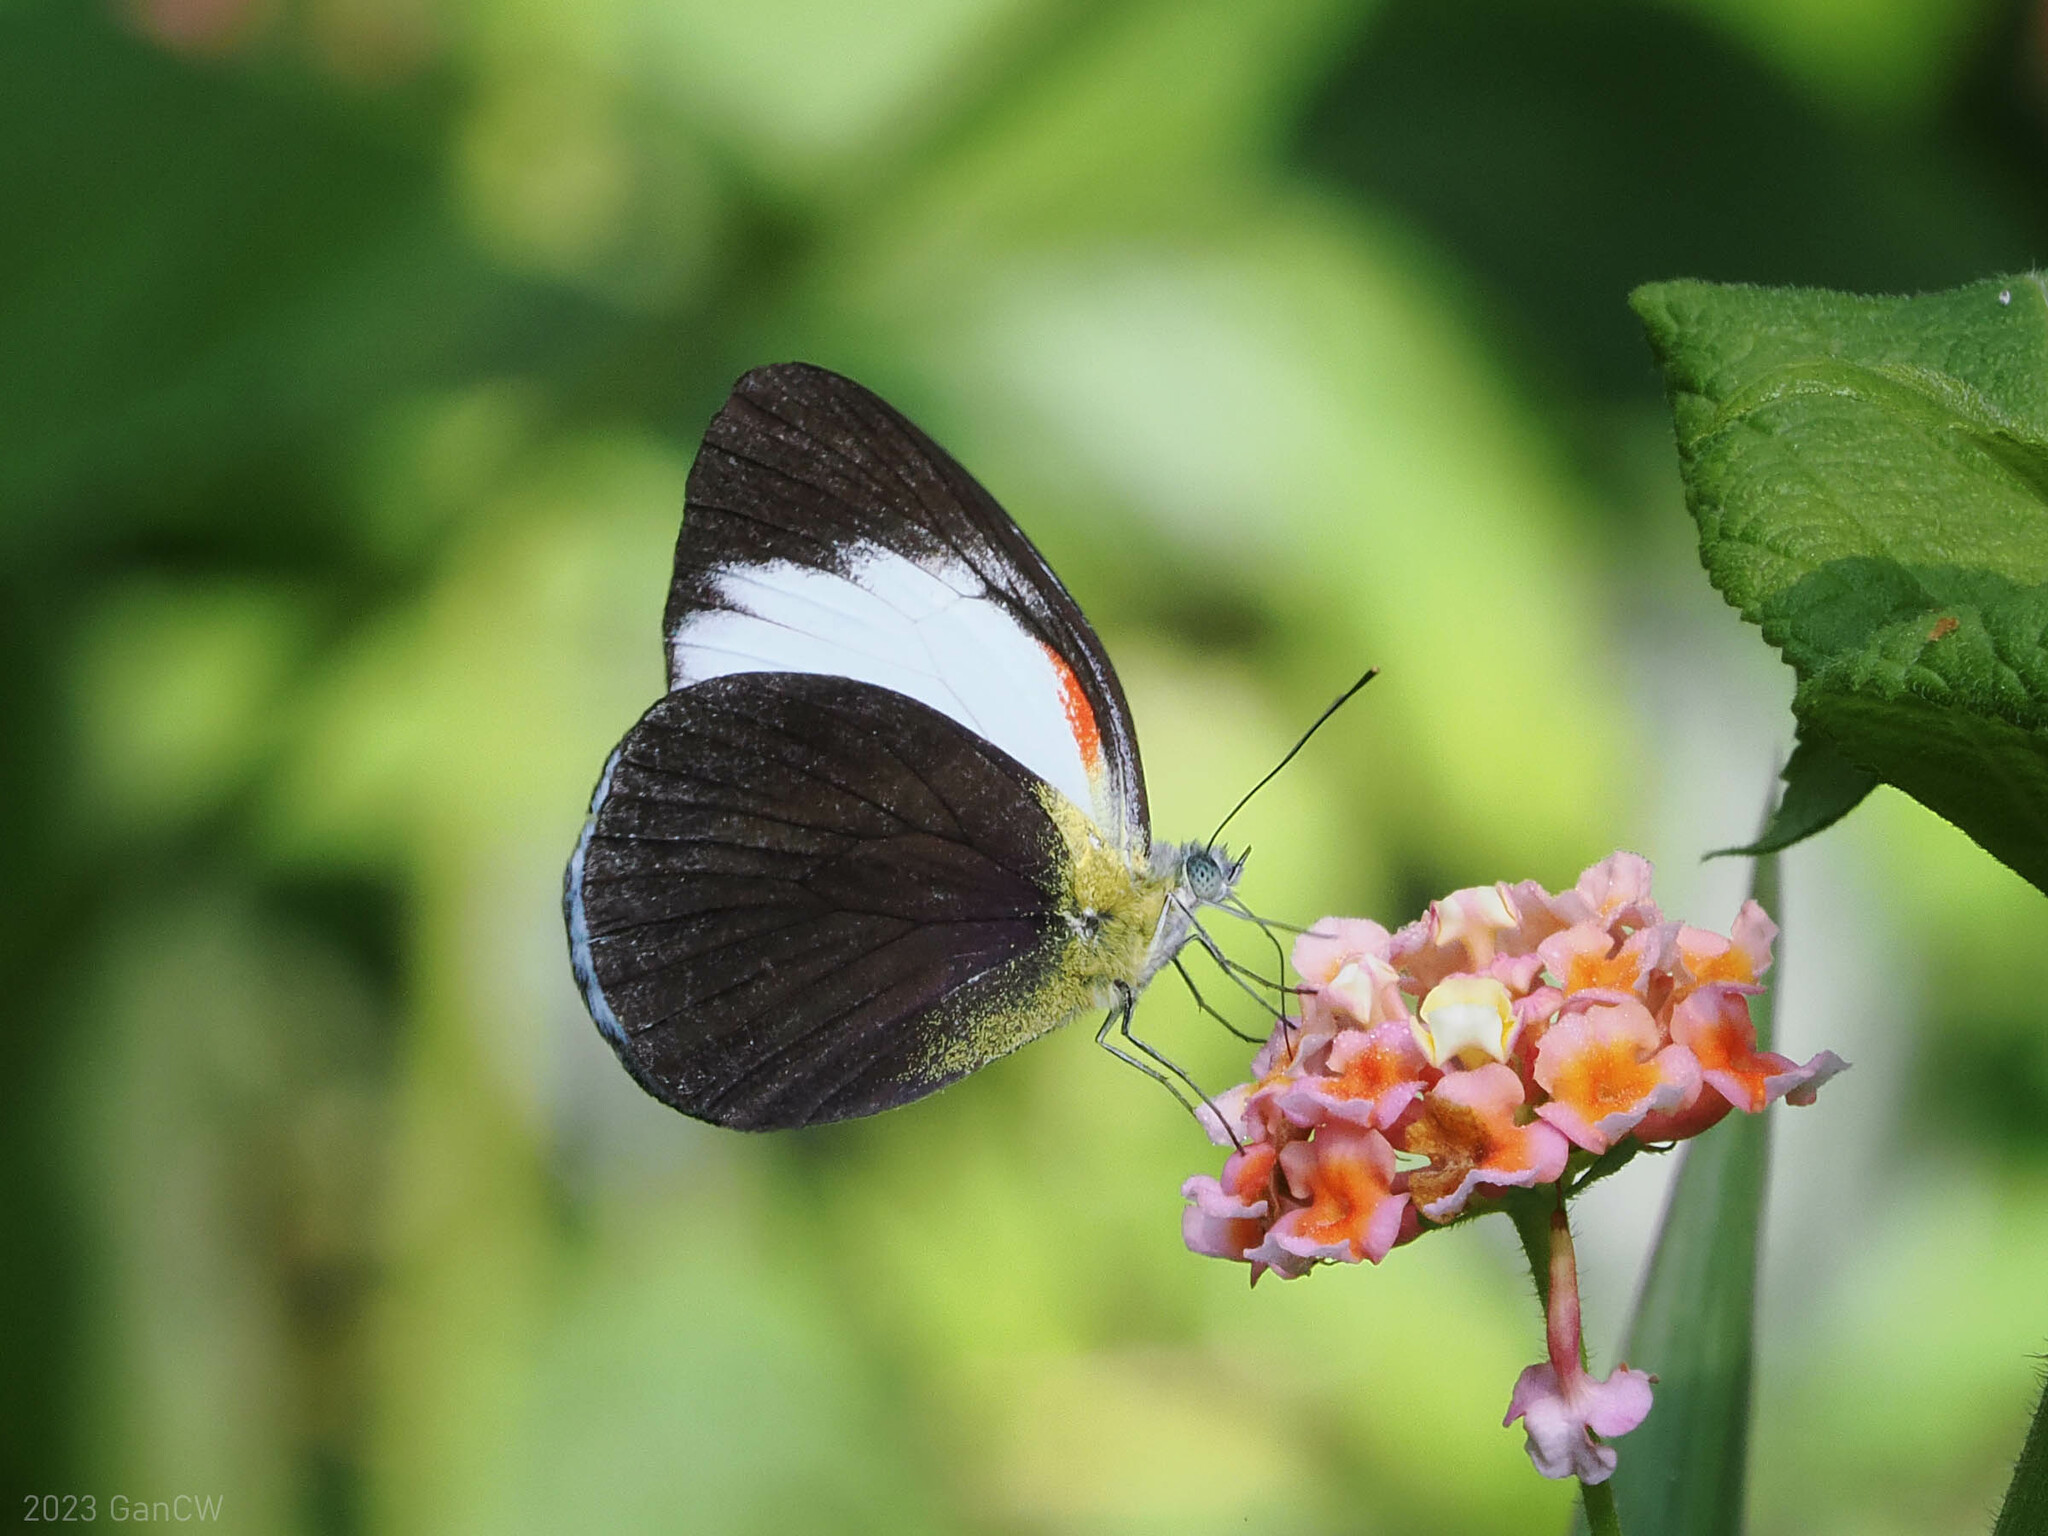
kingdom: Animalia
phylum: Arthropoda
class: Insecta
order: Lepidoptera
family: Pieridae
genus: Cepora
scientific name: Cepora abnormis
